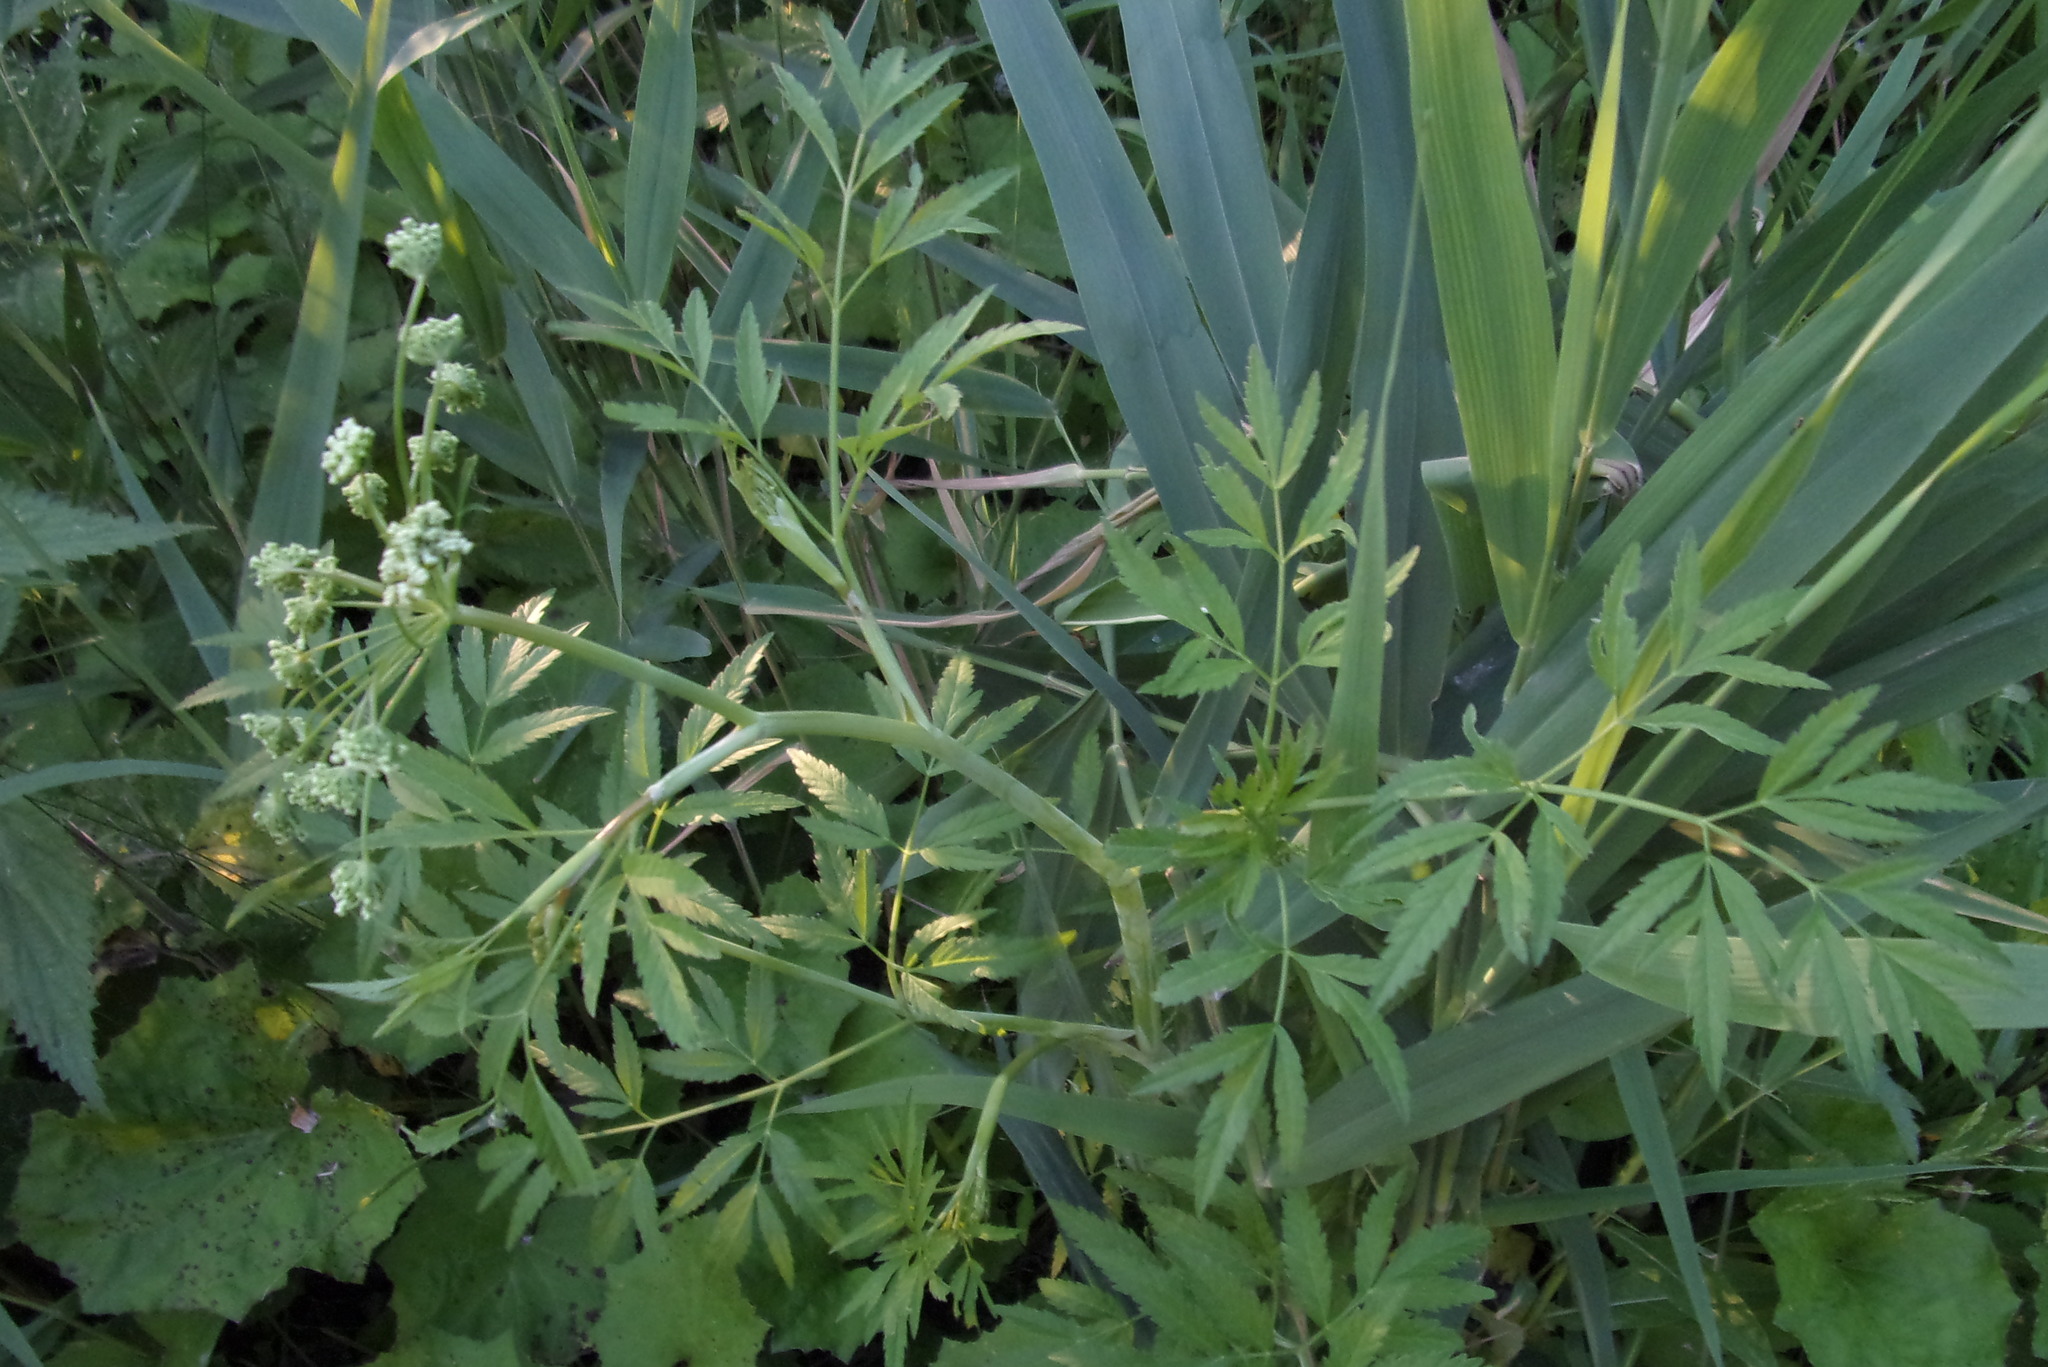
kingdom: Plantae
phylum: Tracheophyta
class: Magnoliopsida
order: Apiales
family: Apiaceae
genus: Cicuta
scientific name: Cicuta virosa
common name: Cowbane
